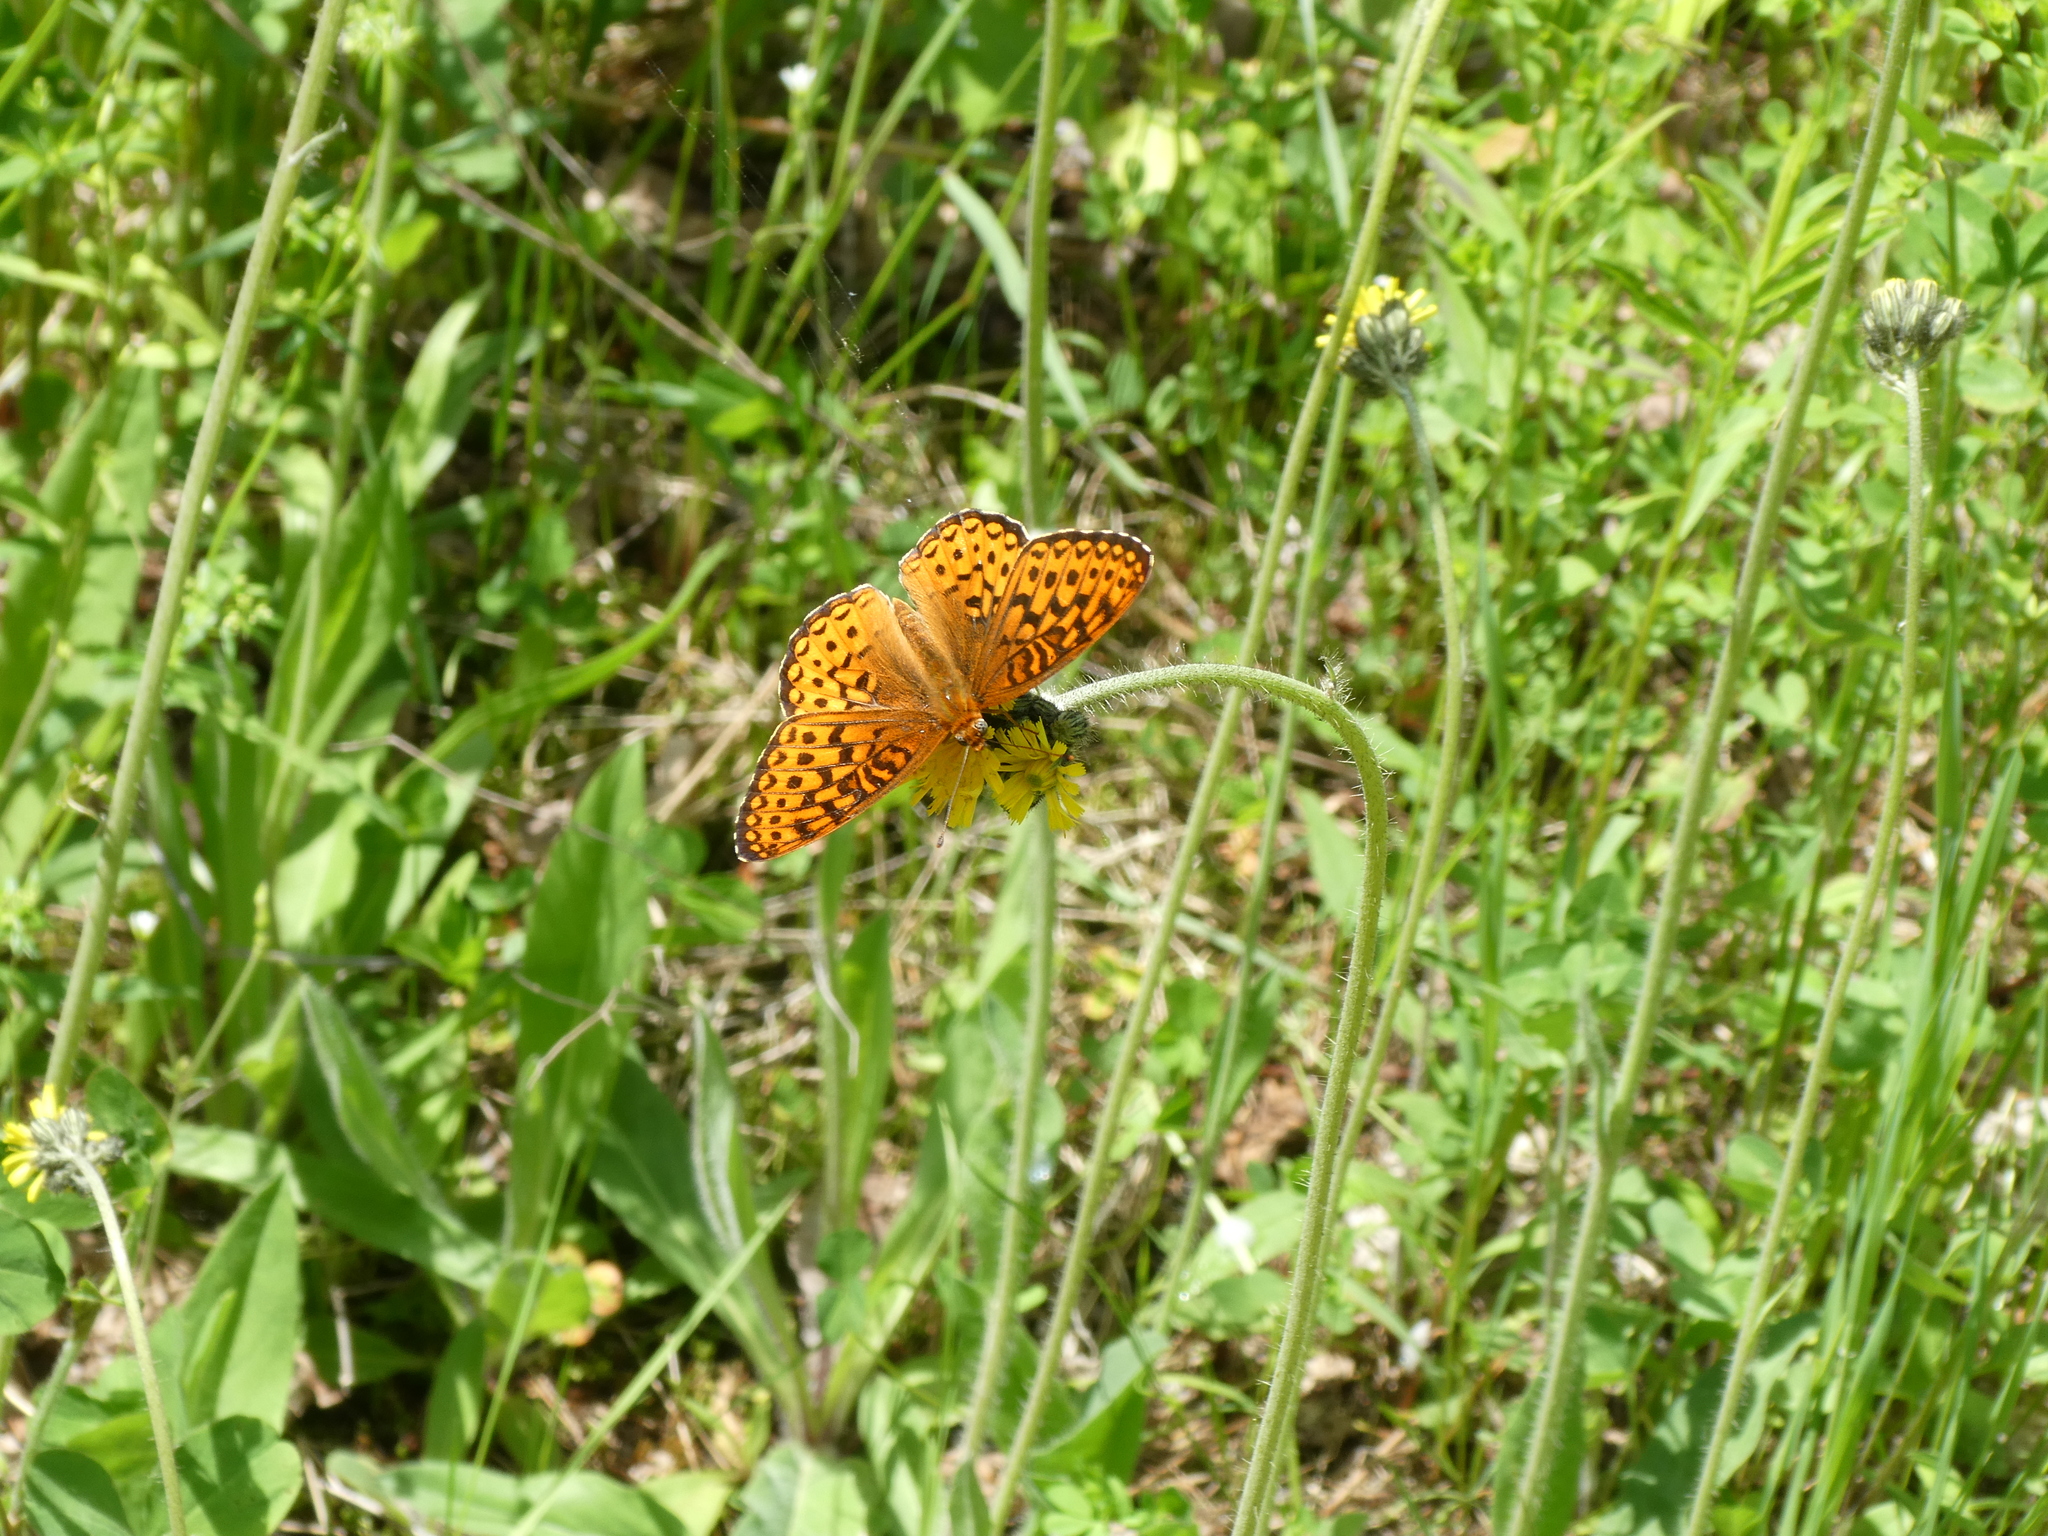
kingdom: Animalia
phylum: Arthropoda
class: Insecta
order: Lepidoptera
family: Nymphalidae
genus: Speyeria
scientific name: Speyeria atlantis
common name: Atlantis fritillary
